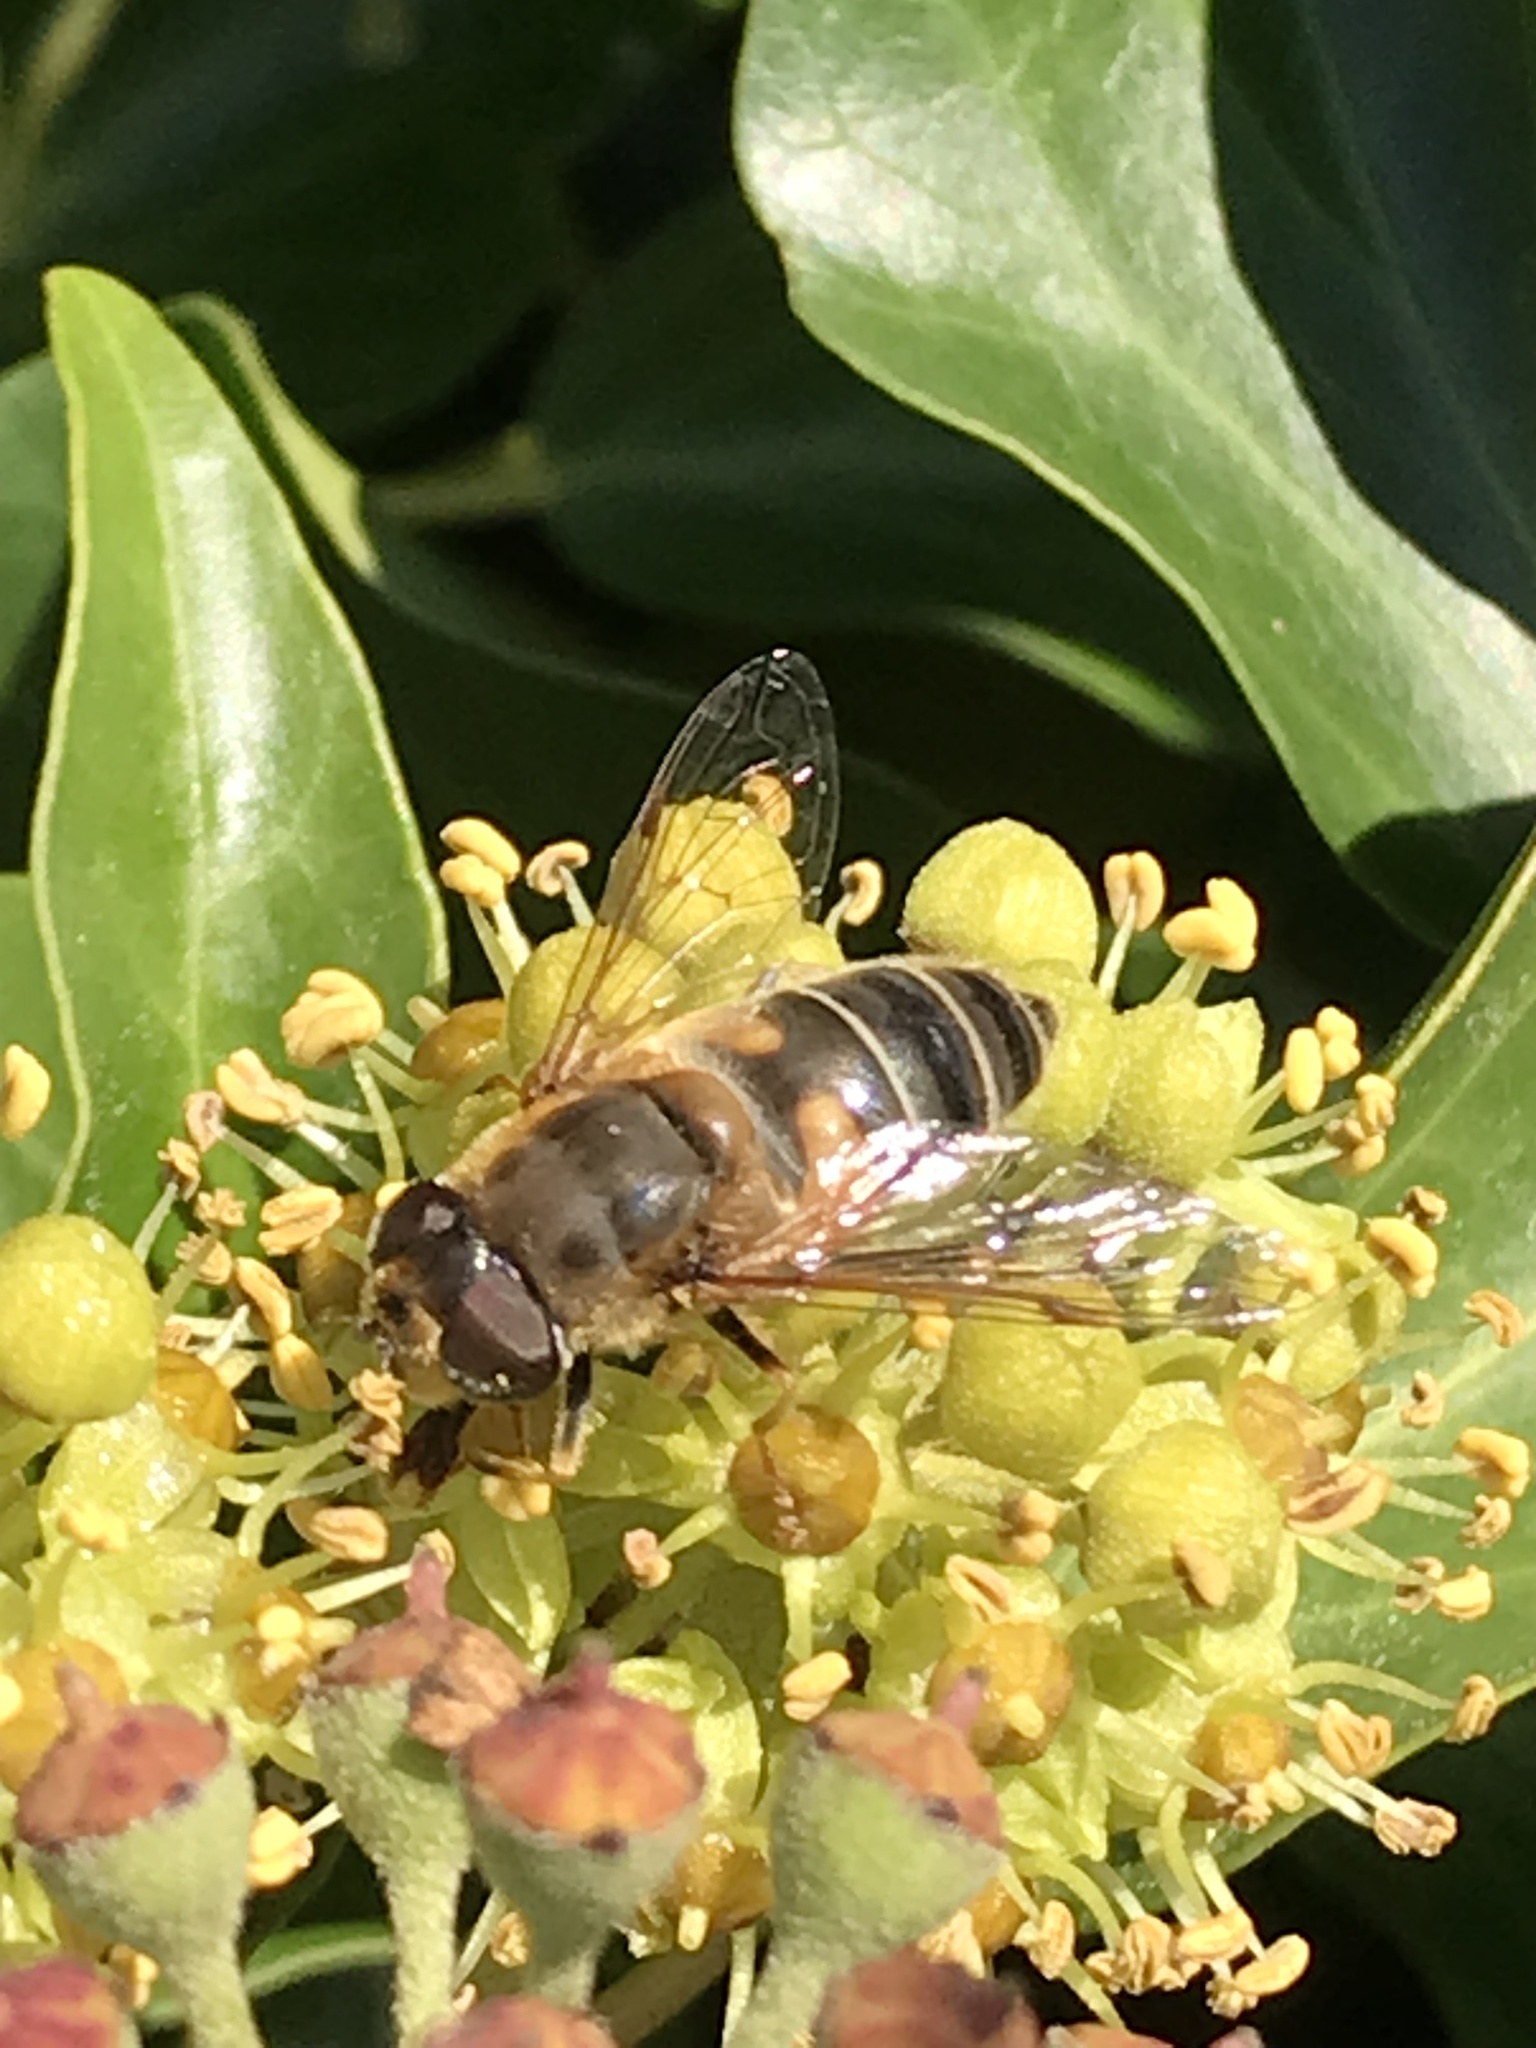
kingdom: Animalia
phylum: Arthropoda
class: Insecta
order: Diptera
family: Syrphidae
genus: Eristalis
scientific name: Eristalis pertinax
